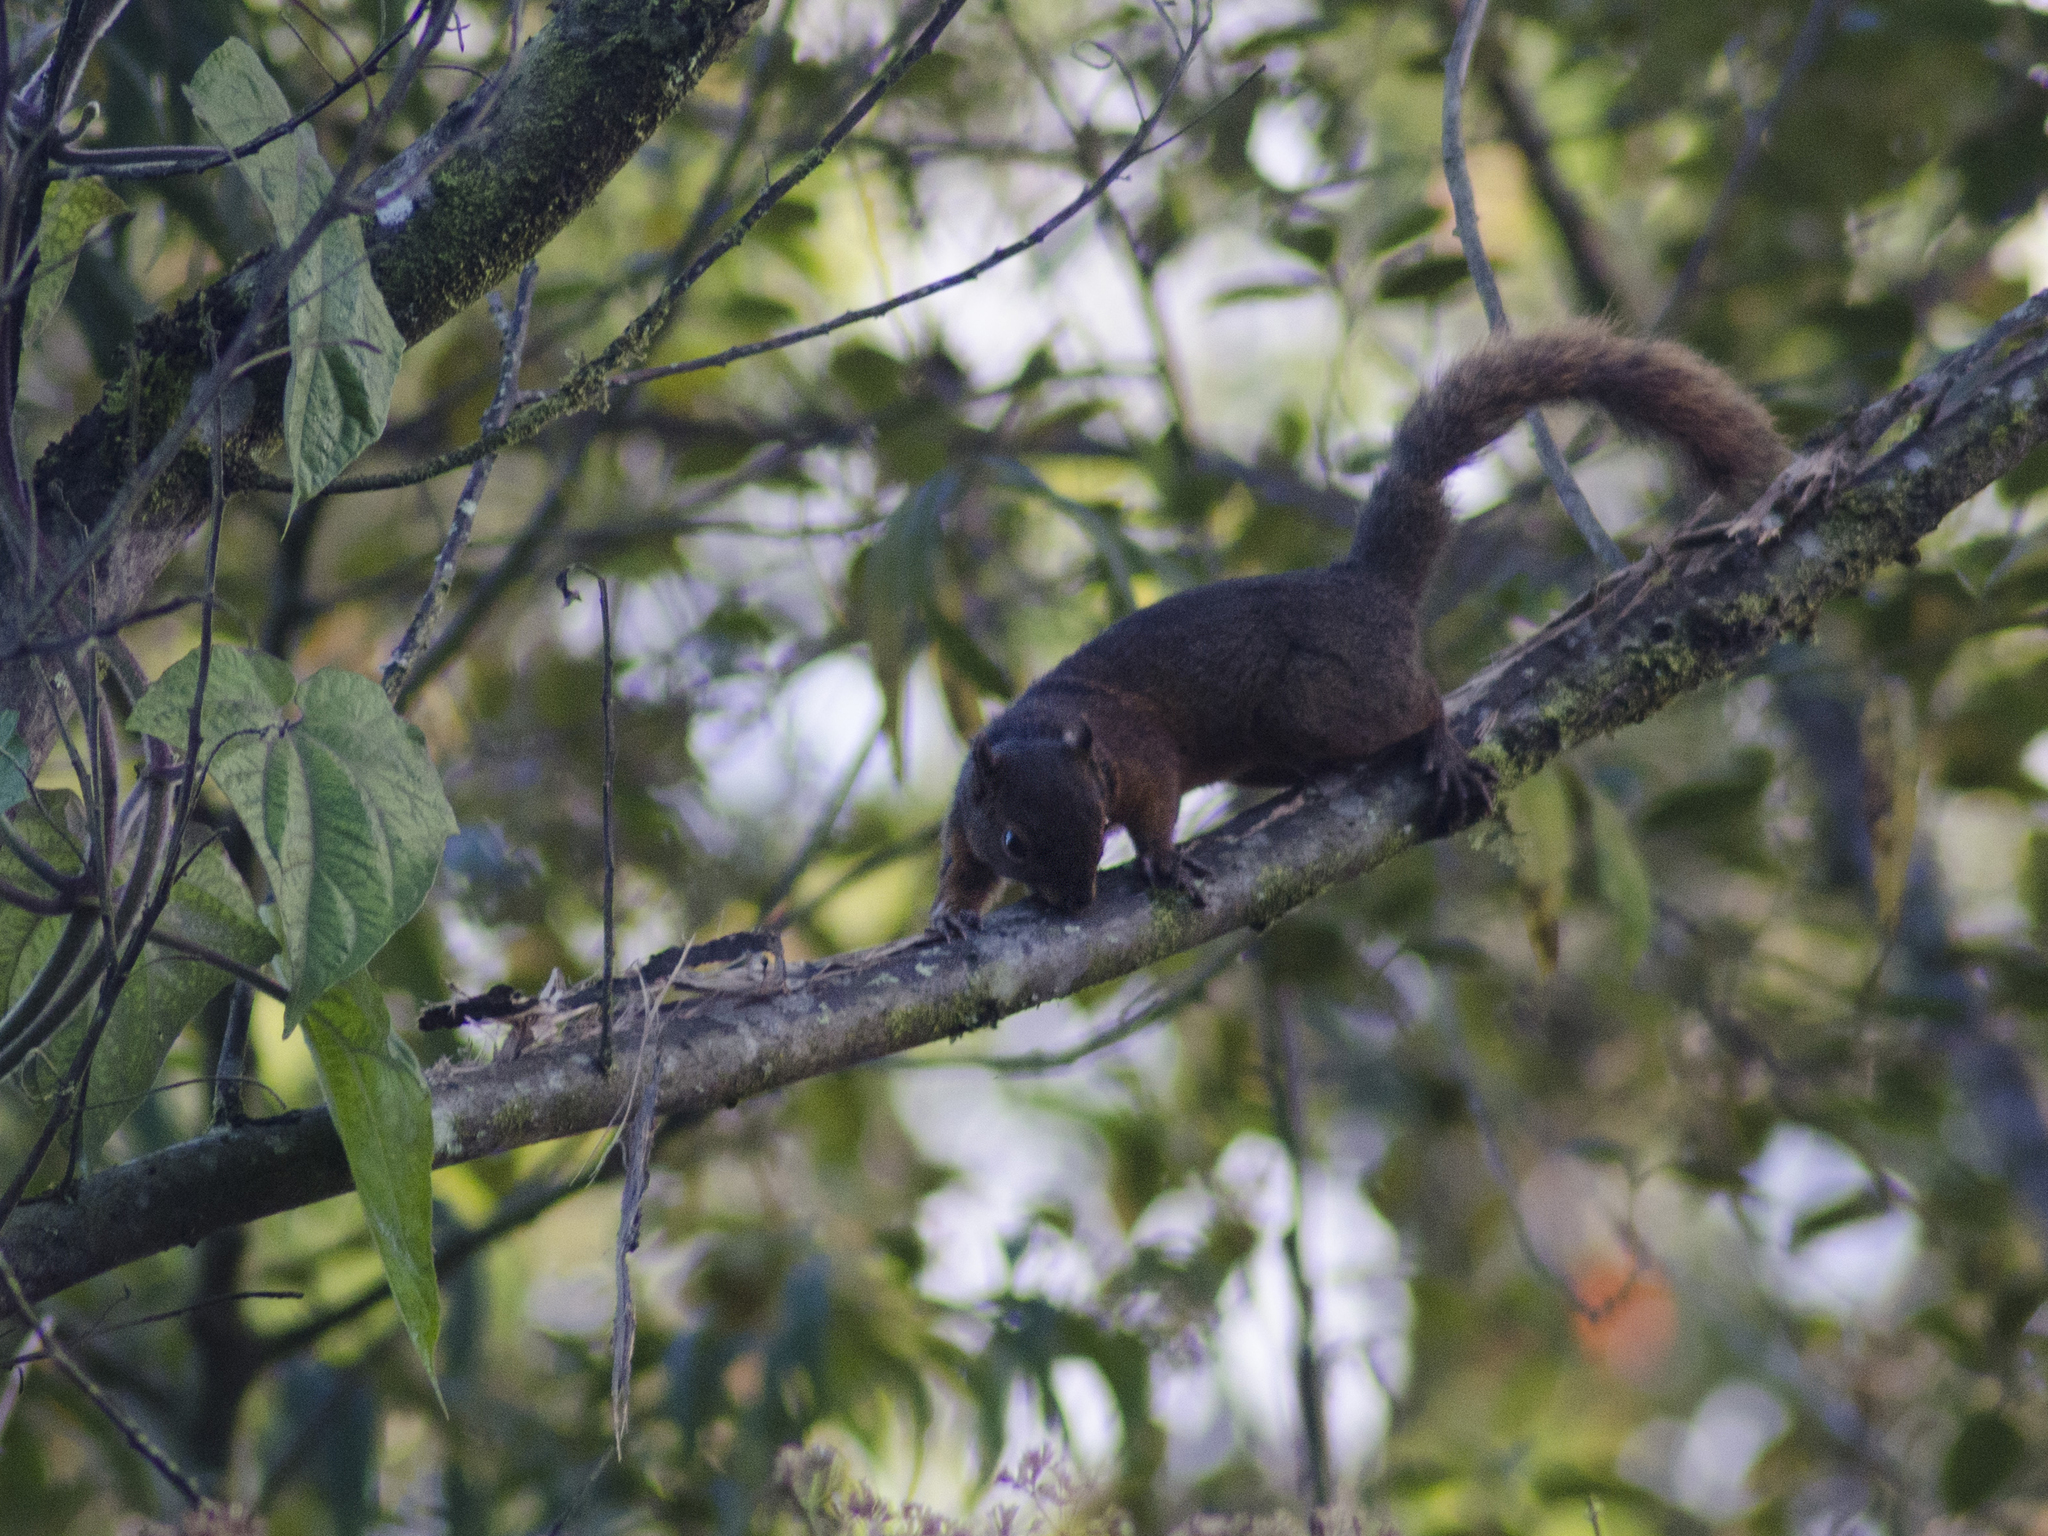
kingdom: Animalia
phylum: Chordata
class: Mammalia
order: Rodentia
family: Sciuridae
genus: Sciurus
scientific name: Sciurus granatensis
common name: Red-tailed squirrel
